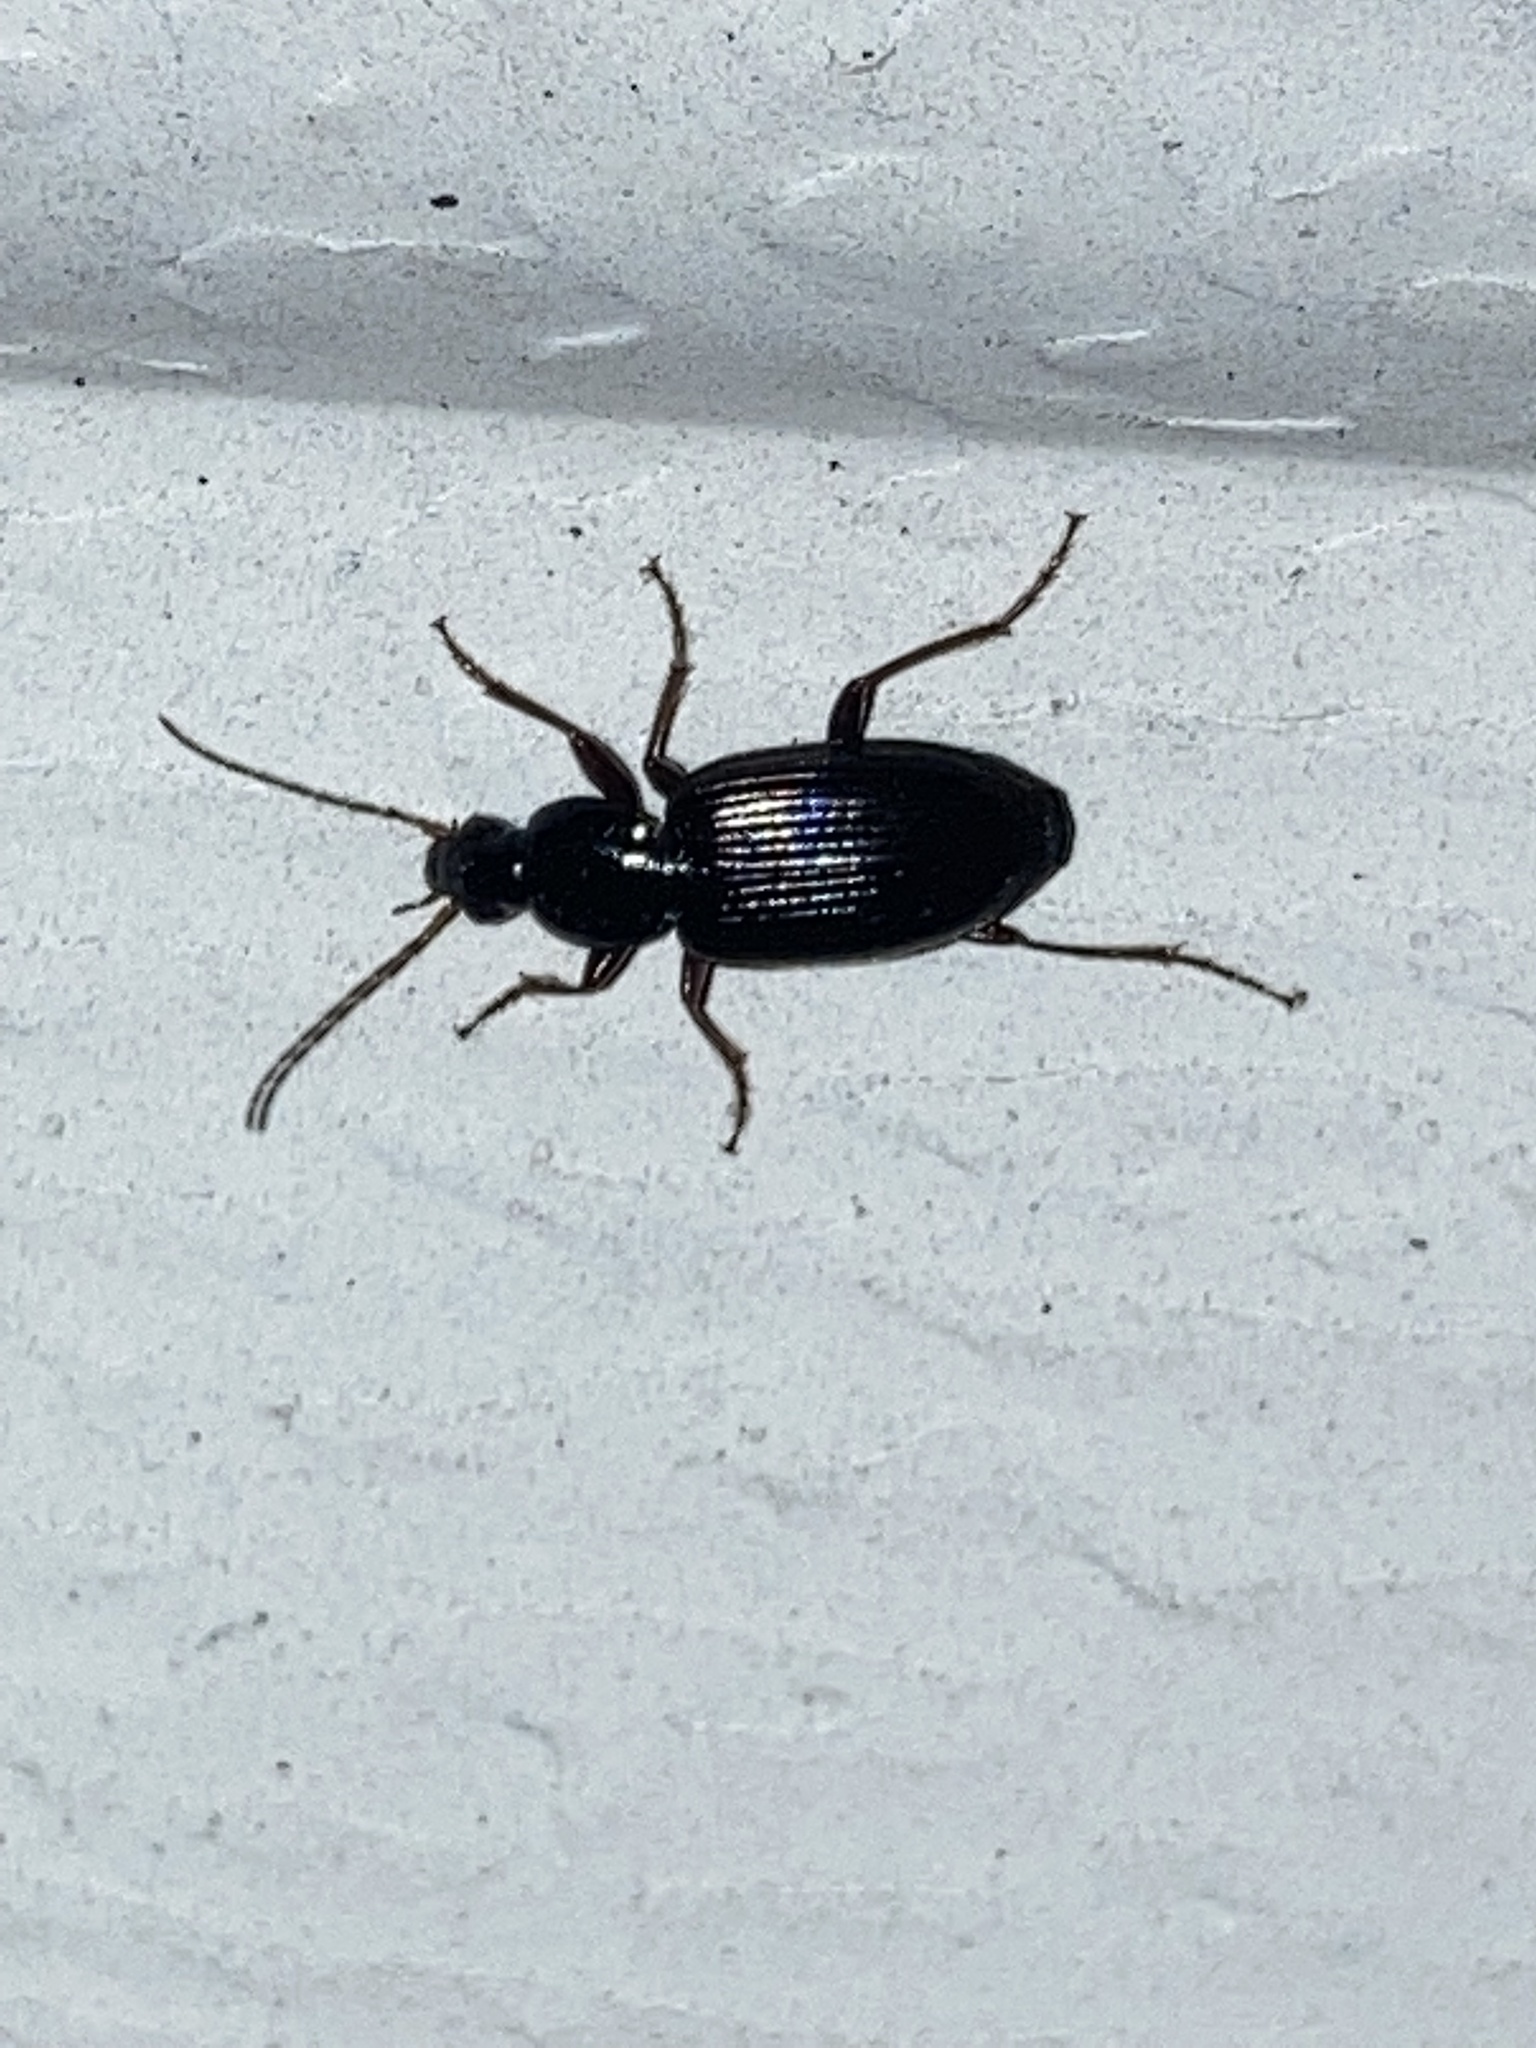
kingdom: Animalia
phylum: Arthropoda
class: Insecta
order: Coleoptera
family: Carabidae
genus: Agonum
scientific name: Agonum punctiforme
